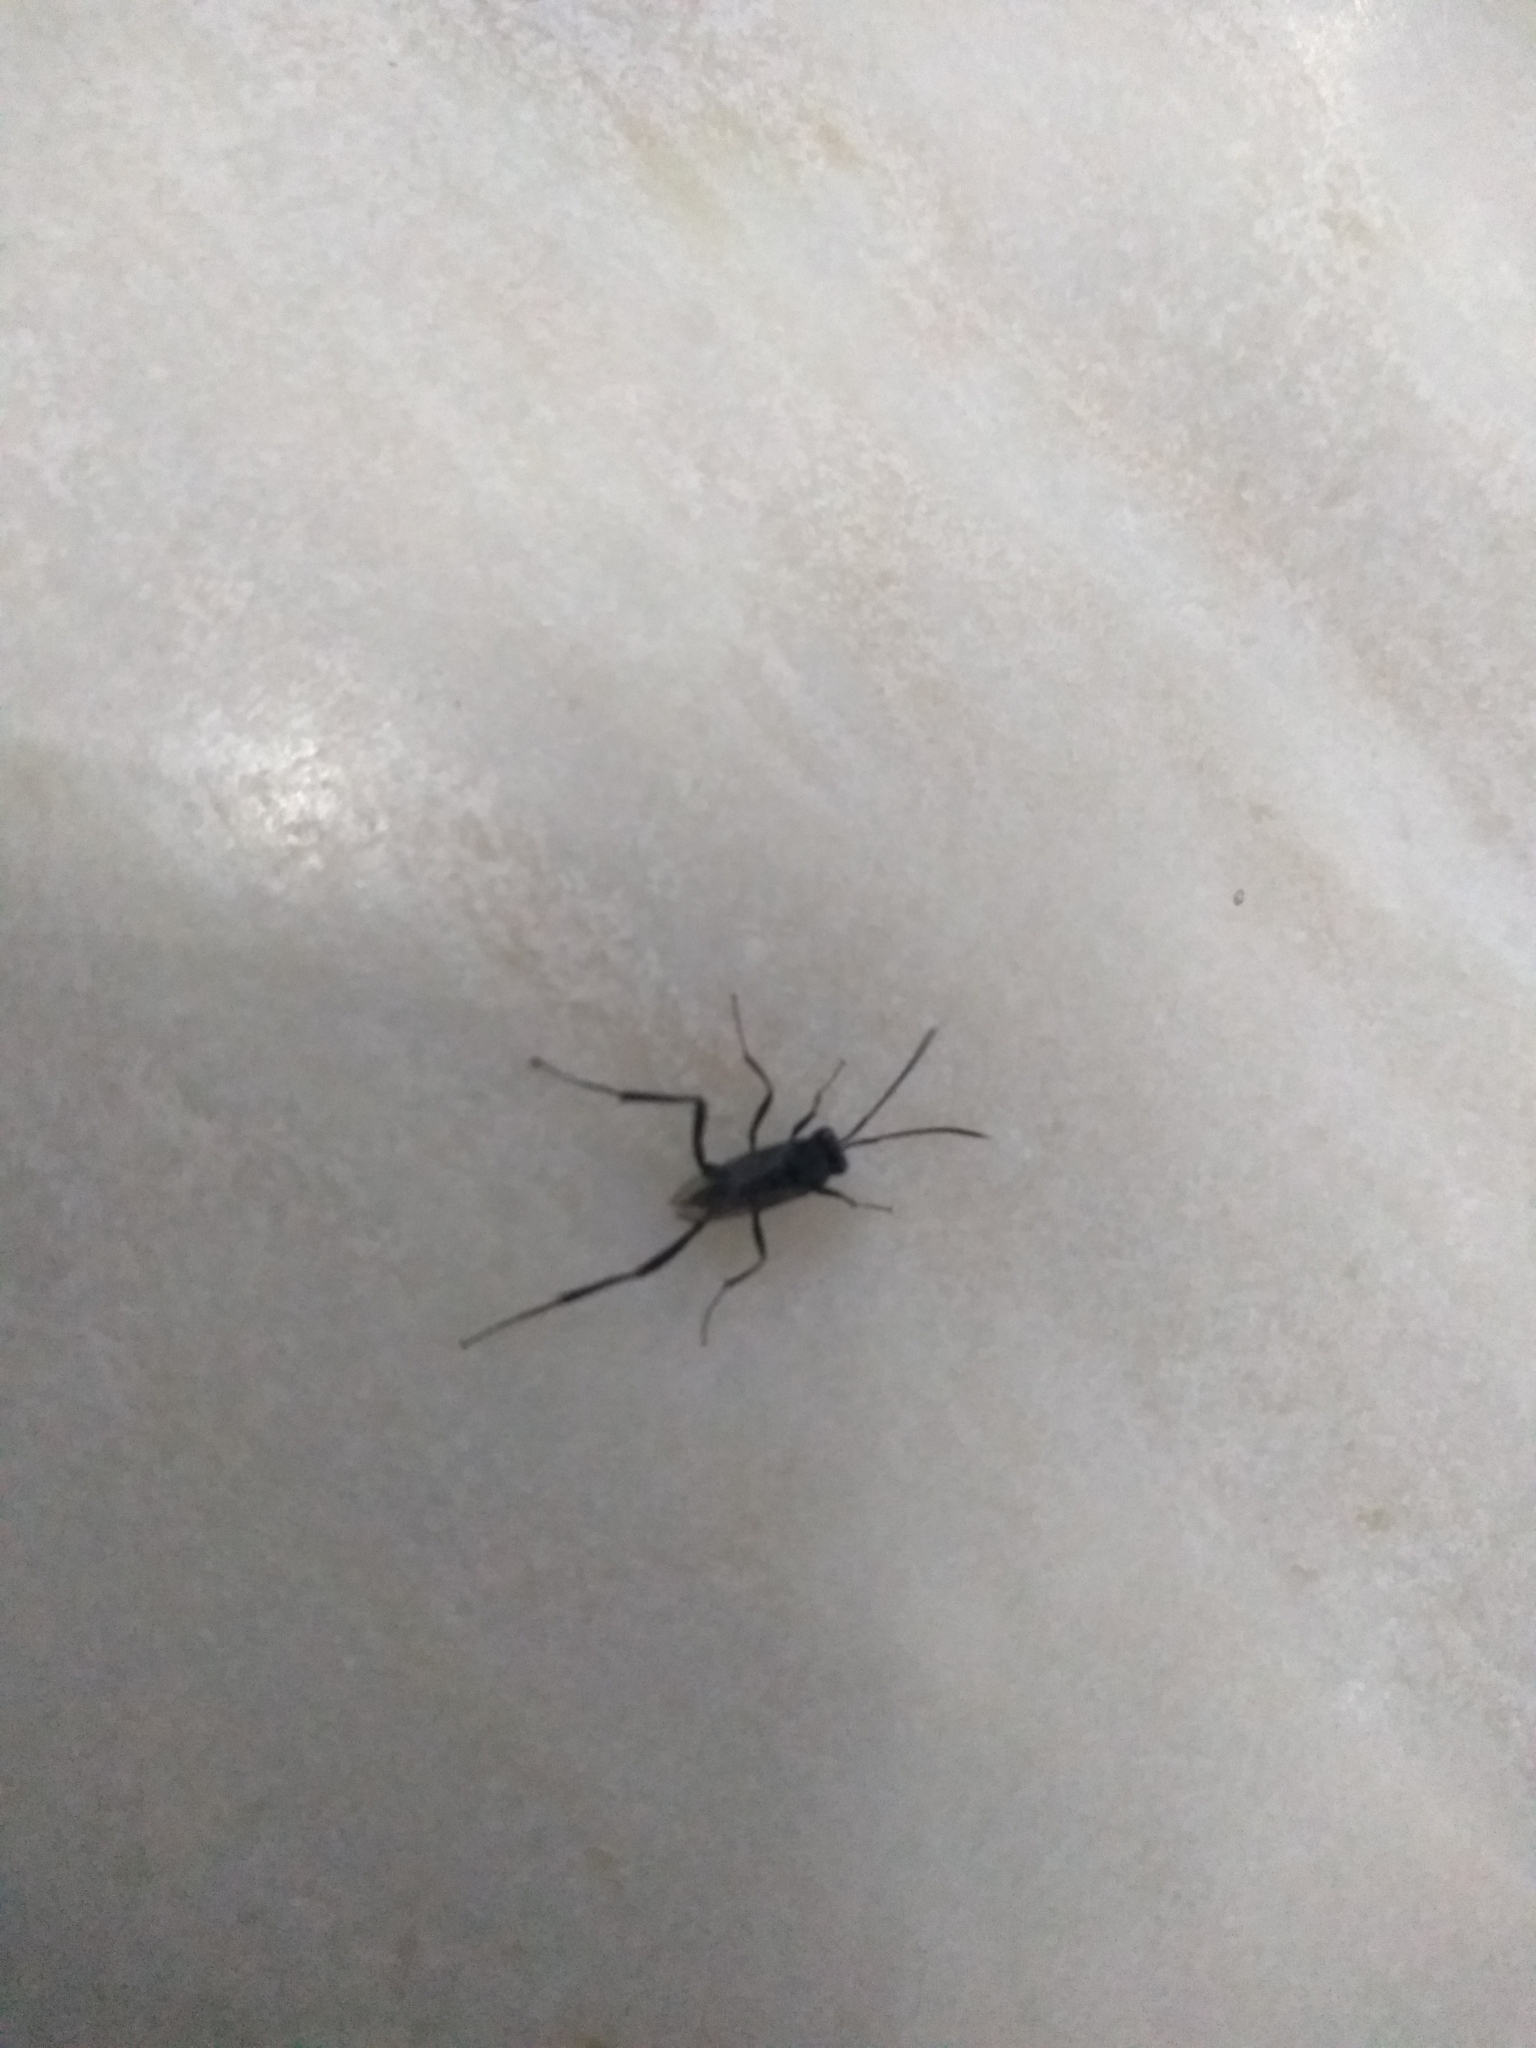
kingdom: Animalia
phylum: Arthropoda
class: Insecta
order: Hymenoptera
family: Evaniidae
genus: Evania
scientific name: Evania appendigaster
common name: Ensign wasp
